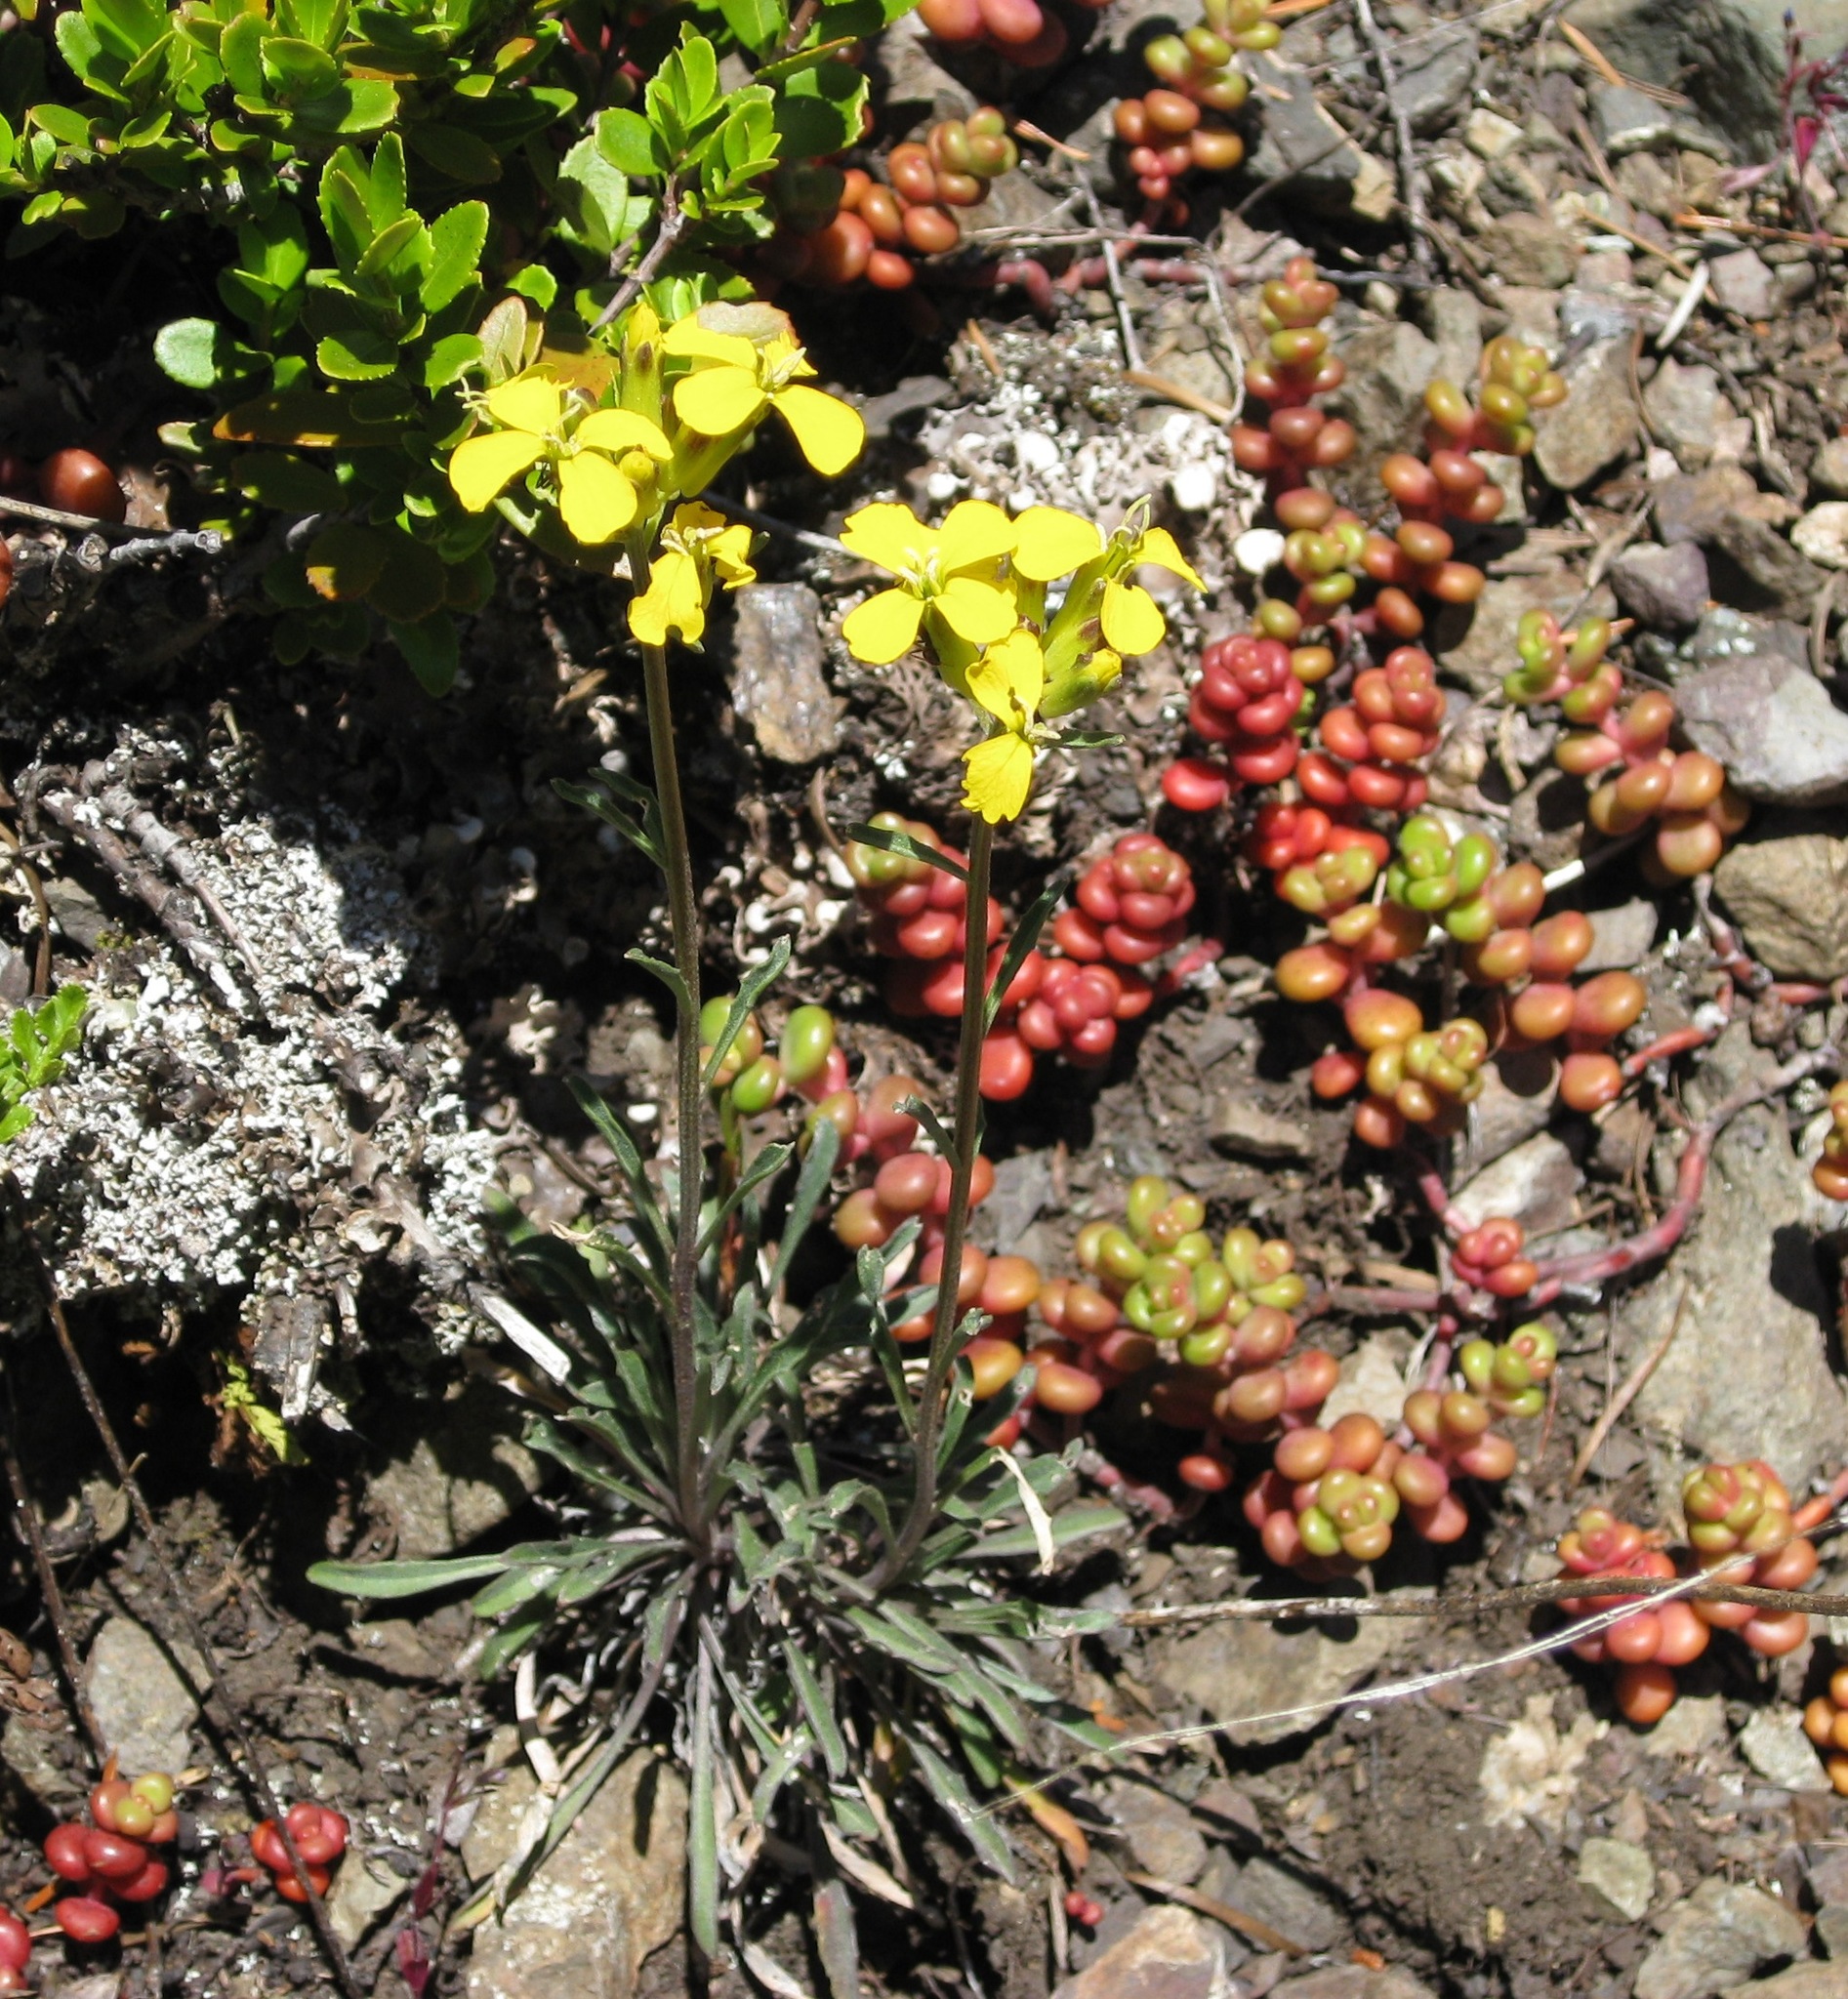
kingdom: Plantae
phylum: Tracheophyta
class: Magnoliopsida
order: Brassicales
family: Brassicaceae
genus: Erysimum
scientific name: Erysimum arenicola
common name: Cascade wallflower
